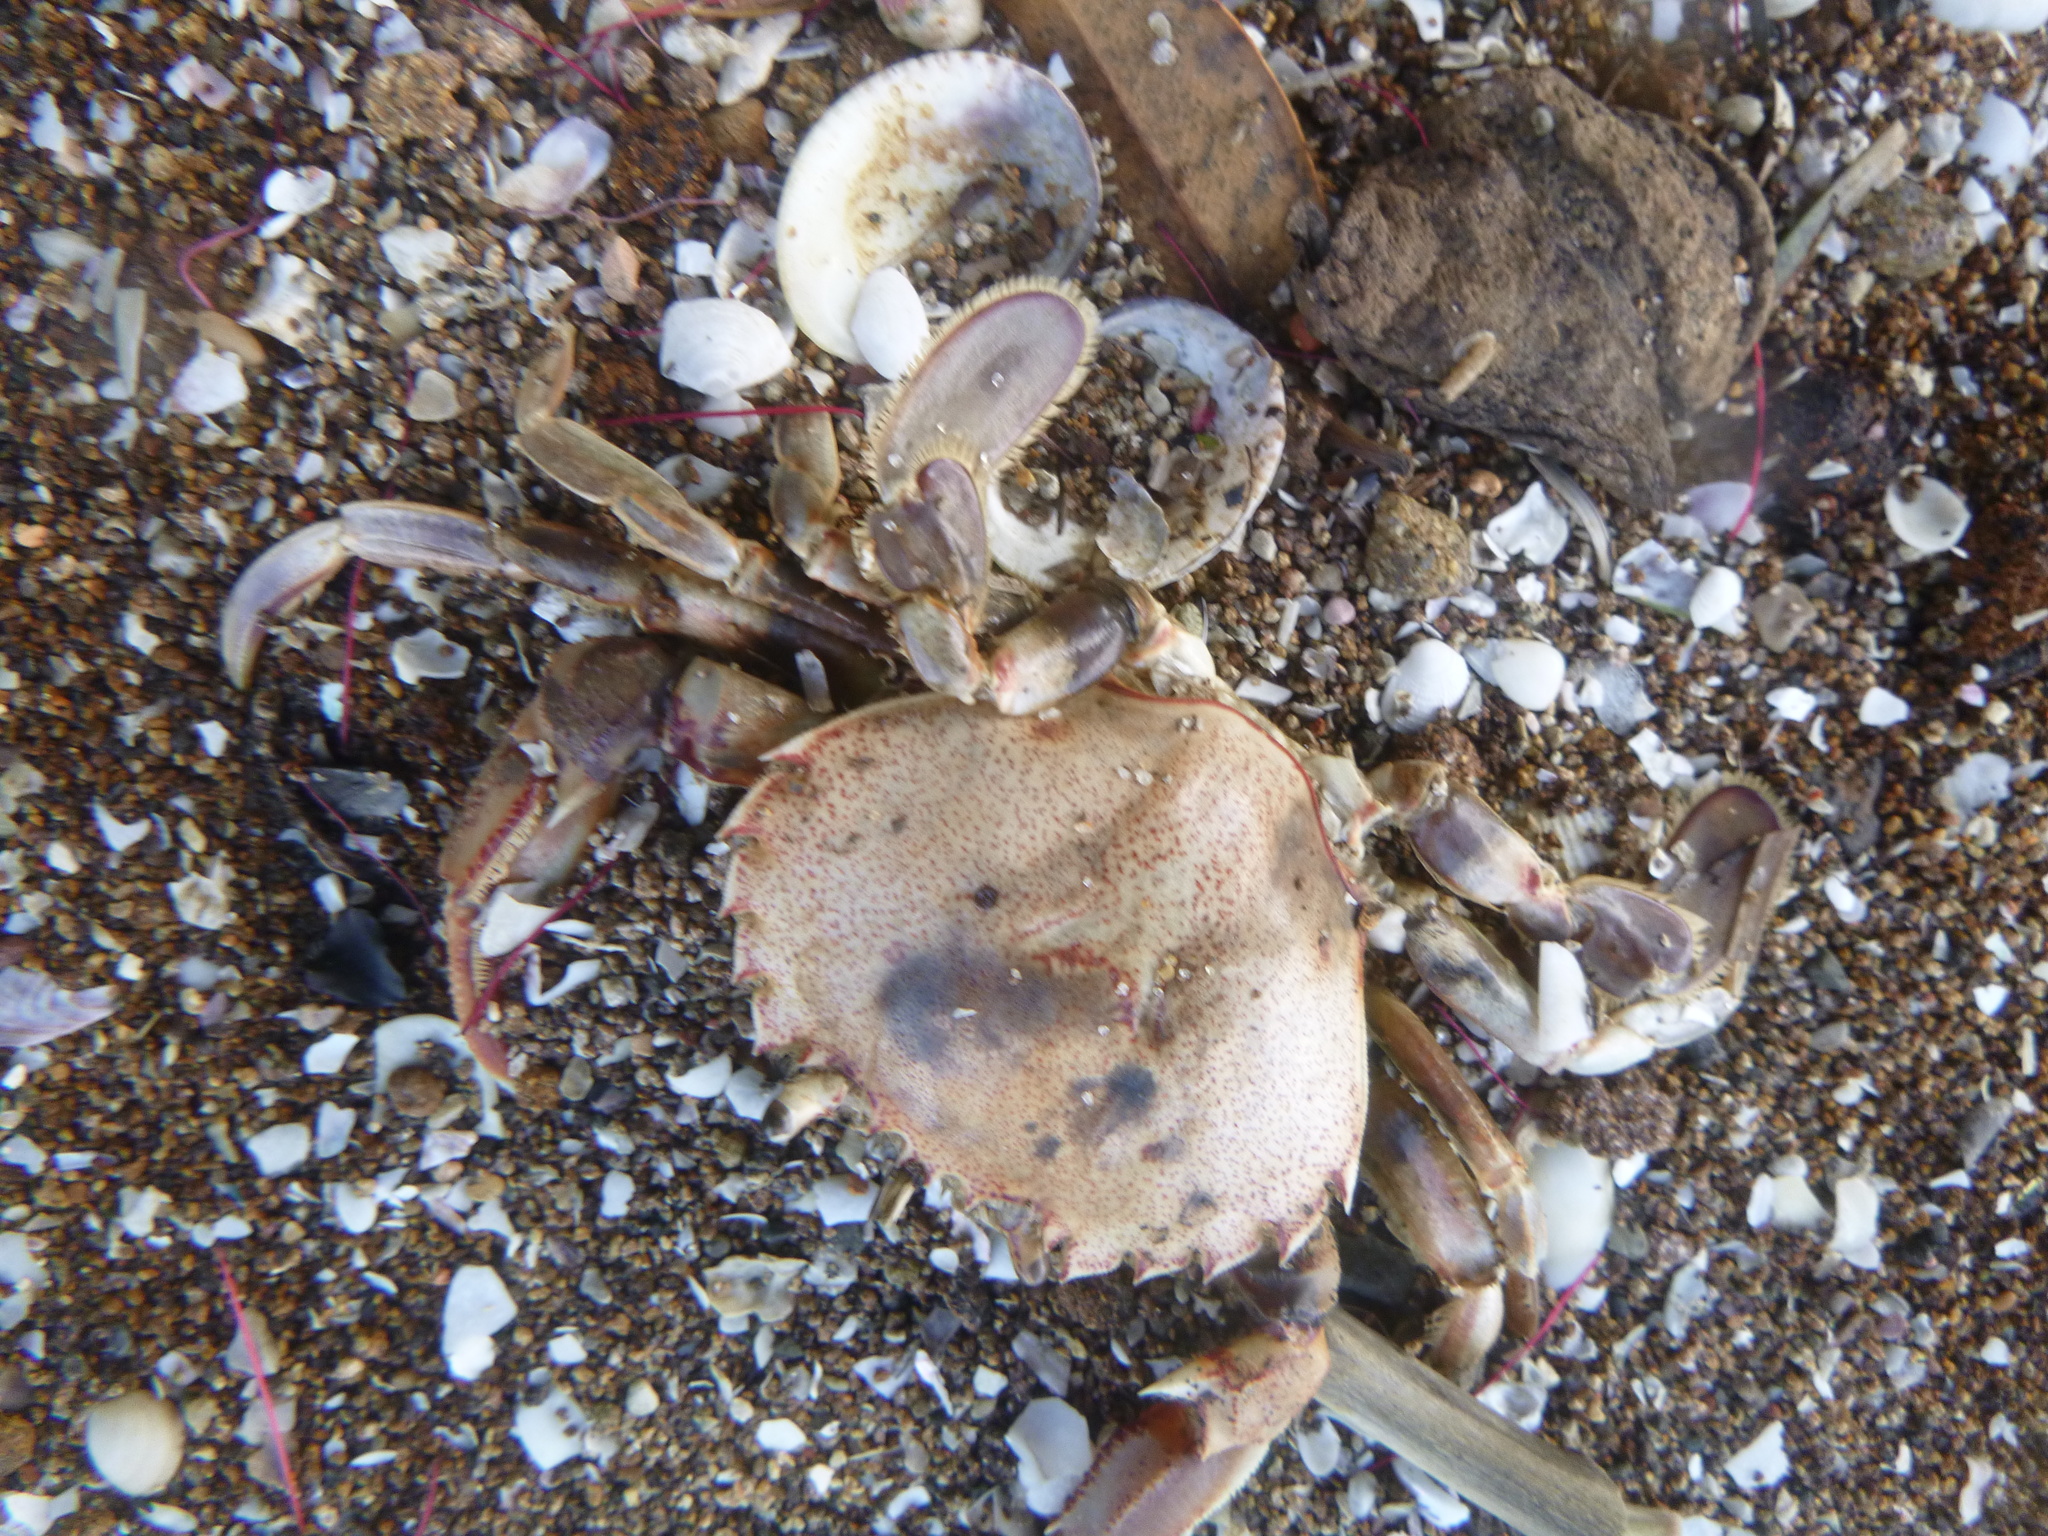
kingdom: Animalia
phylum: Arthropoda
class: Malacostraca
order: Decapoda
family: Ovalipidae
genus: Ovalipes
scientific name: Ovalipes catharus
